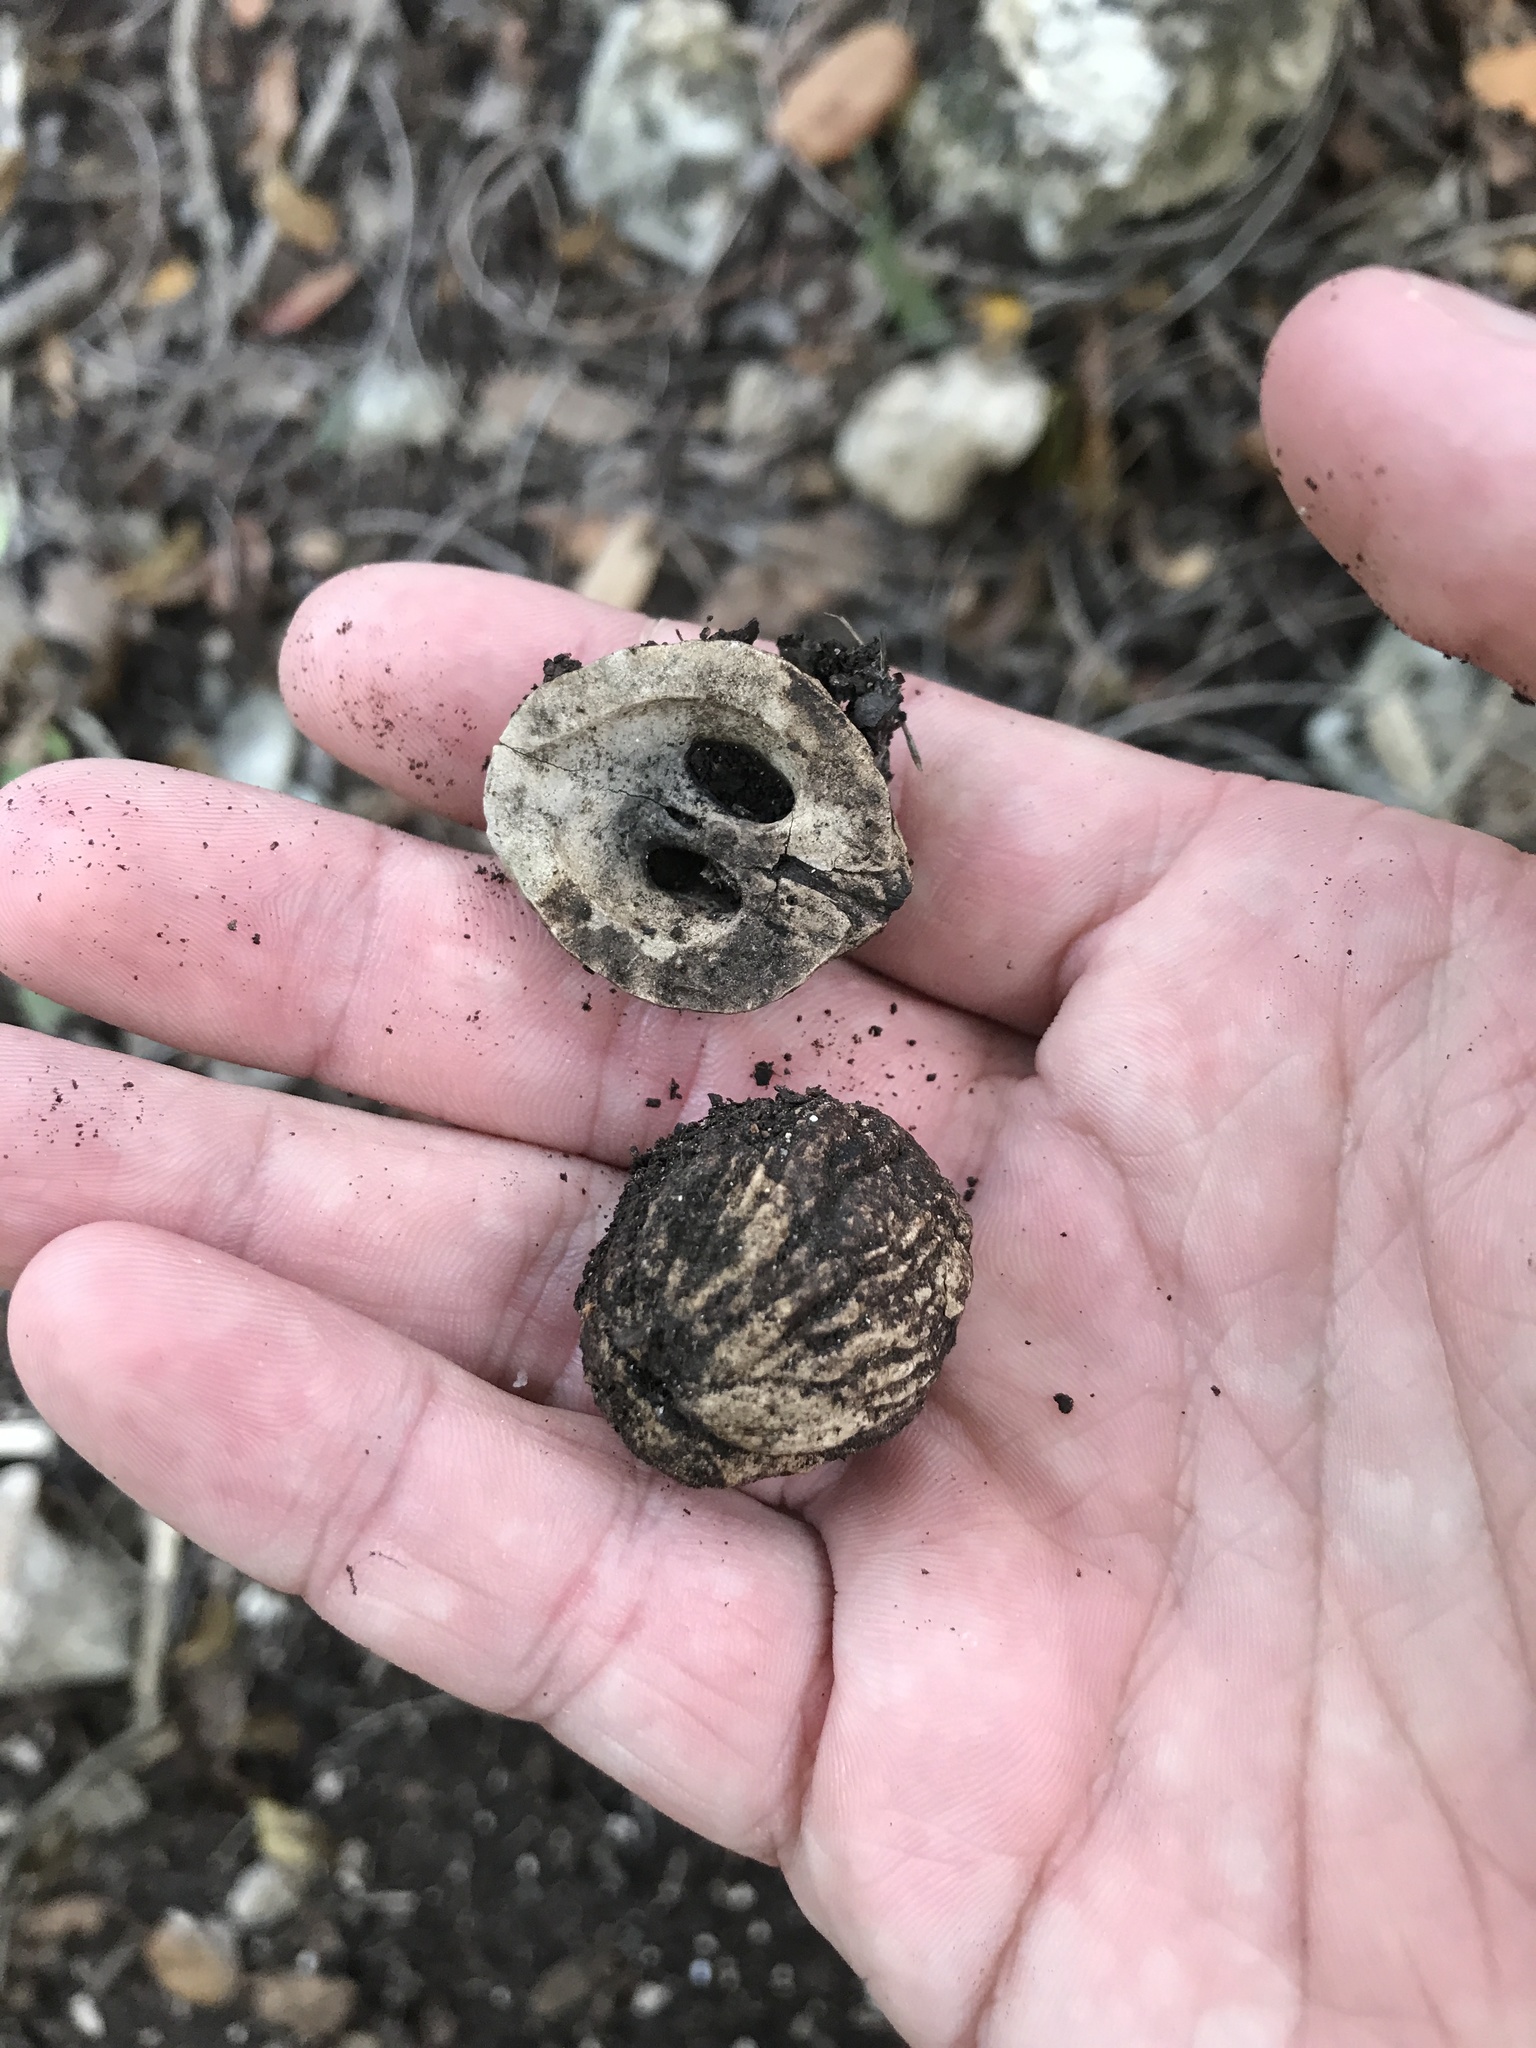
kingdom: Plantae
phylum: Tracheophyta
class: Magnoliopsida
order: Fagales
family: Juglandaceae
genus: Juglans
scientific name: Juglans major
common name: Arizona walnut
